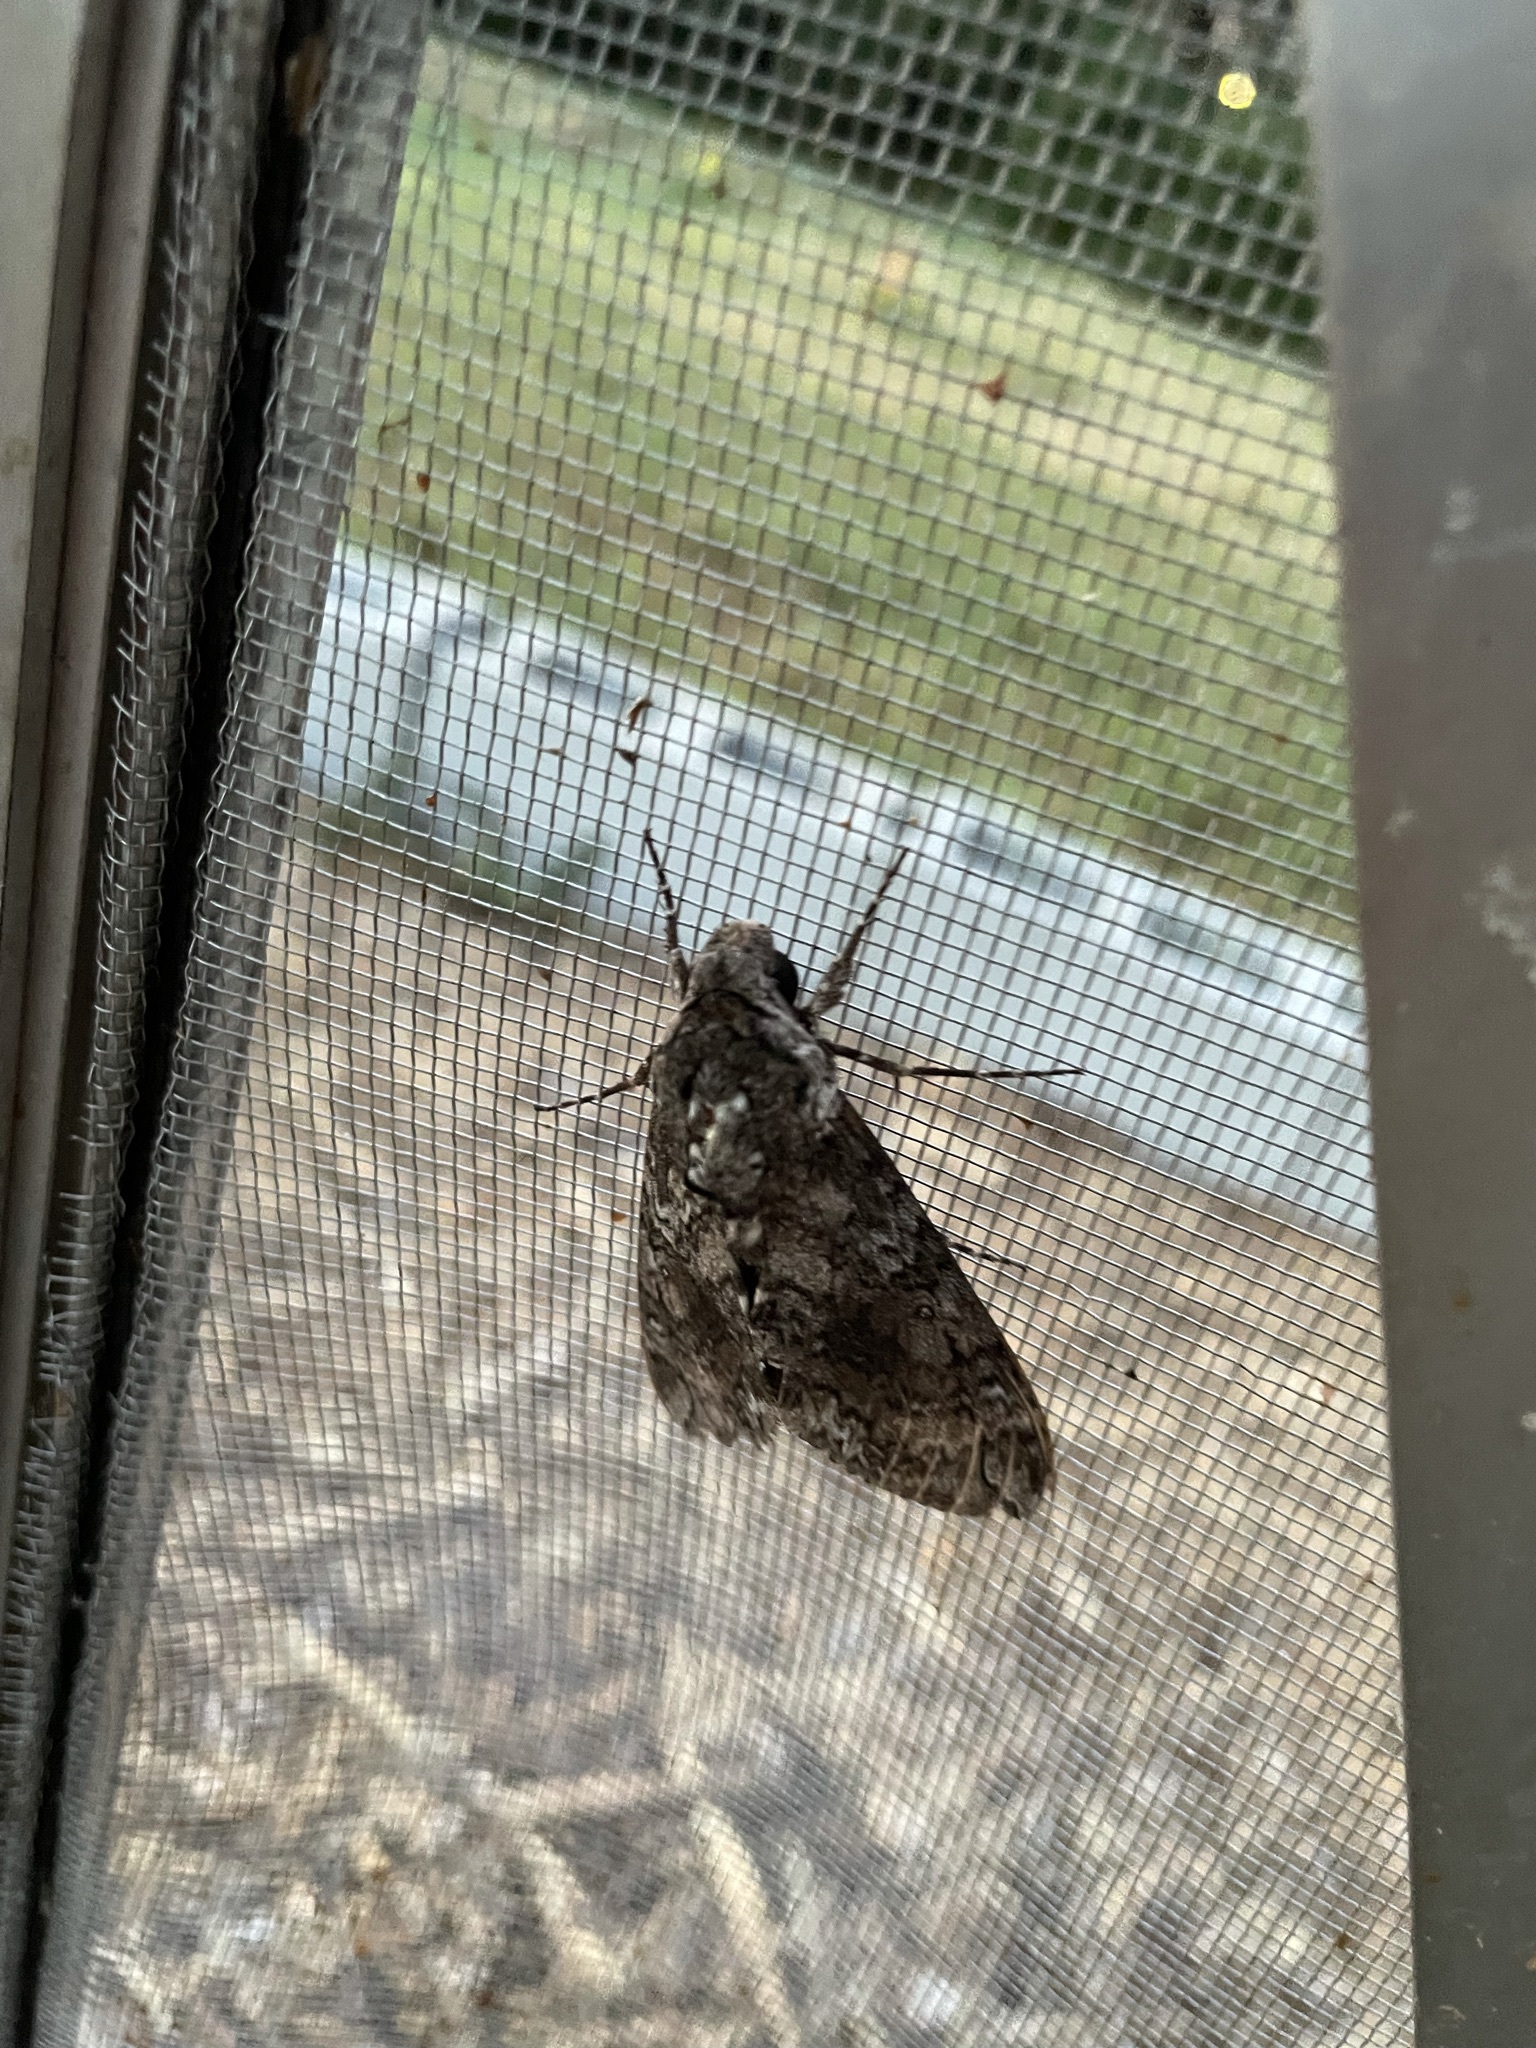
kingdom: Animalia
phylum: Arthropoda
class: Insecta
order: Lepidoptera
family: Sphingidae
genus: Manduca
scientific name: Manduca sexta
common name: Carolina sphinx
